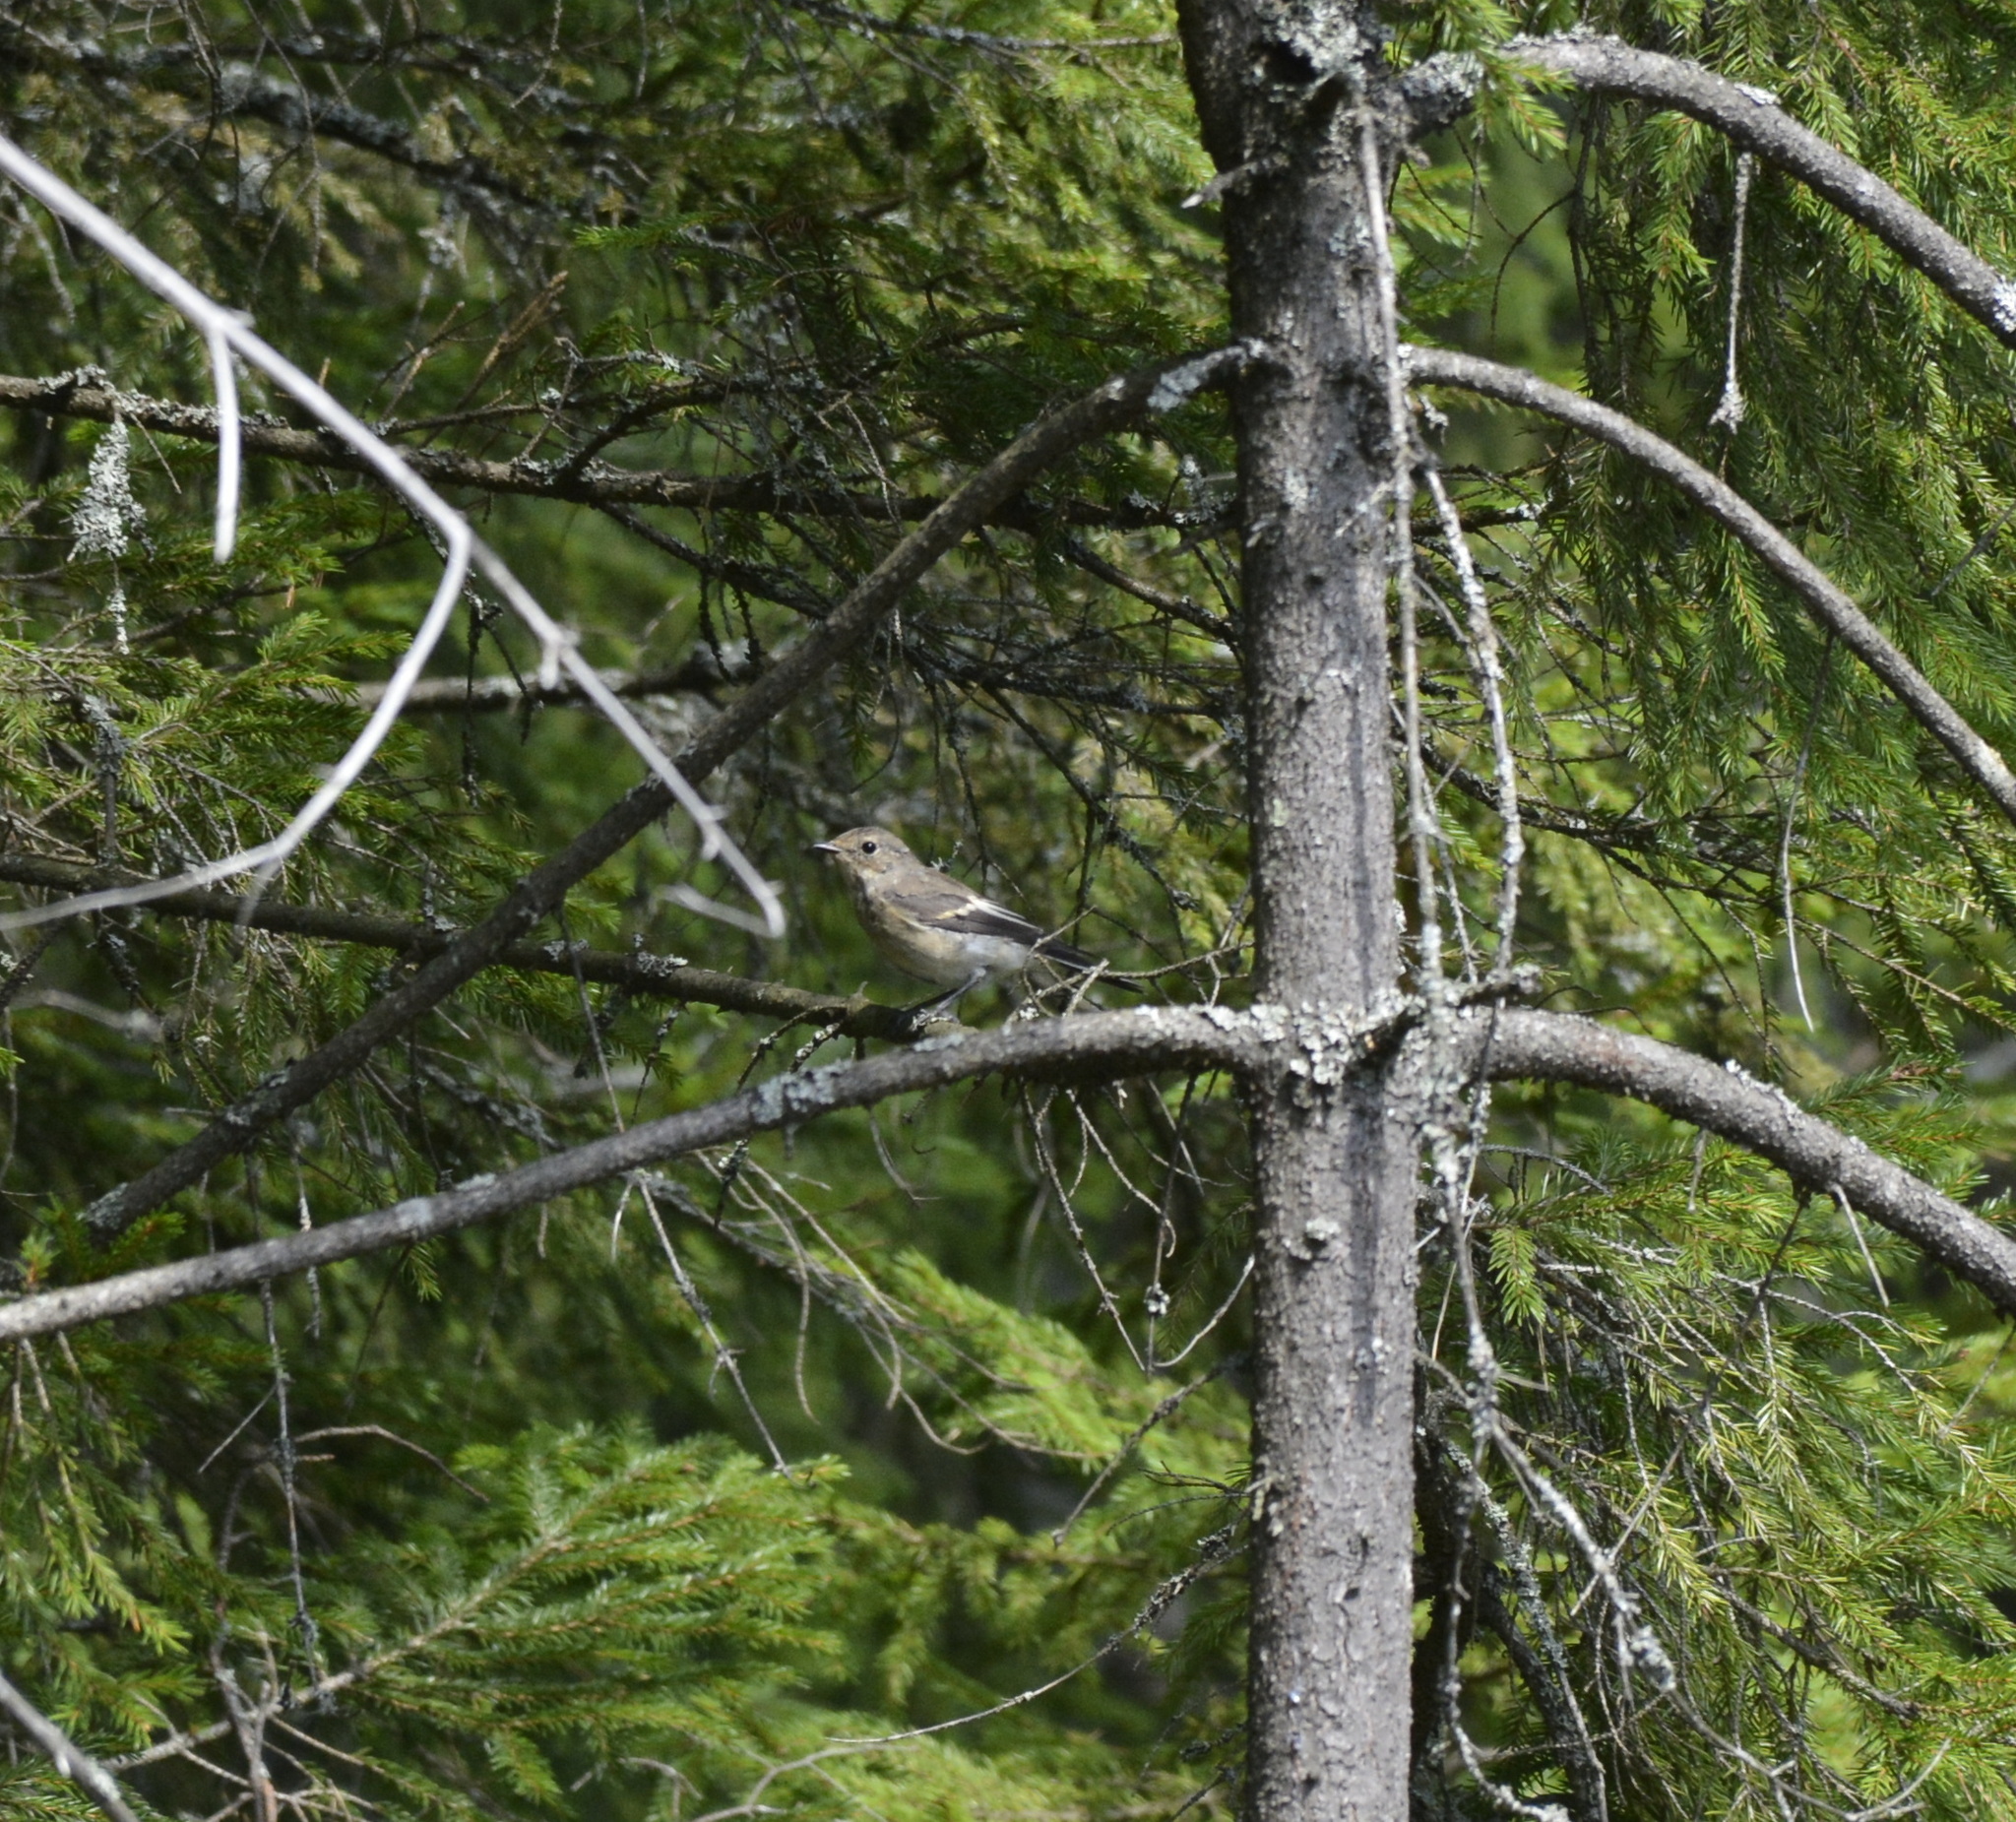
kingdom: Animalia
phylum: Chordata
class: Aves
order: Passeriformes
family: Muscicapidae
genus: Ficedula
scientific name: Ficedula hypoleuca
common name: European pied flycatcher
